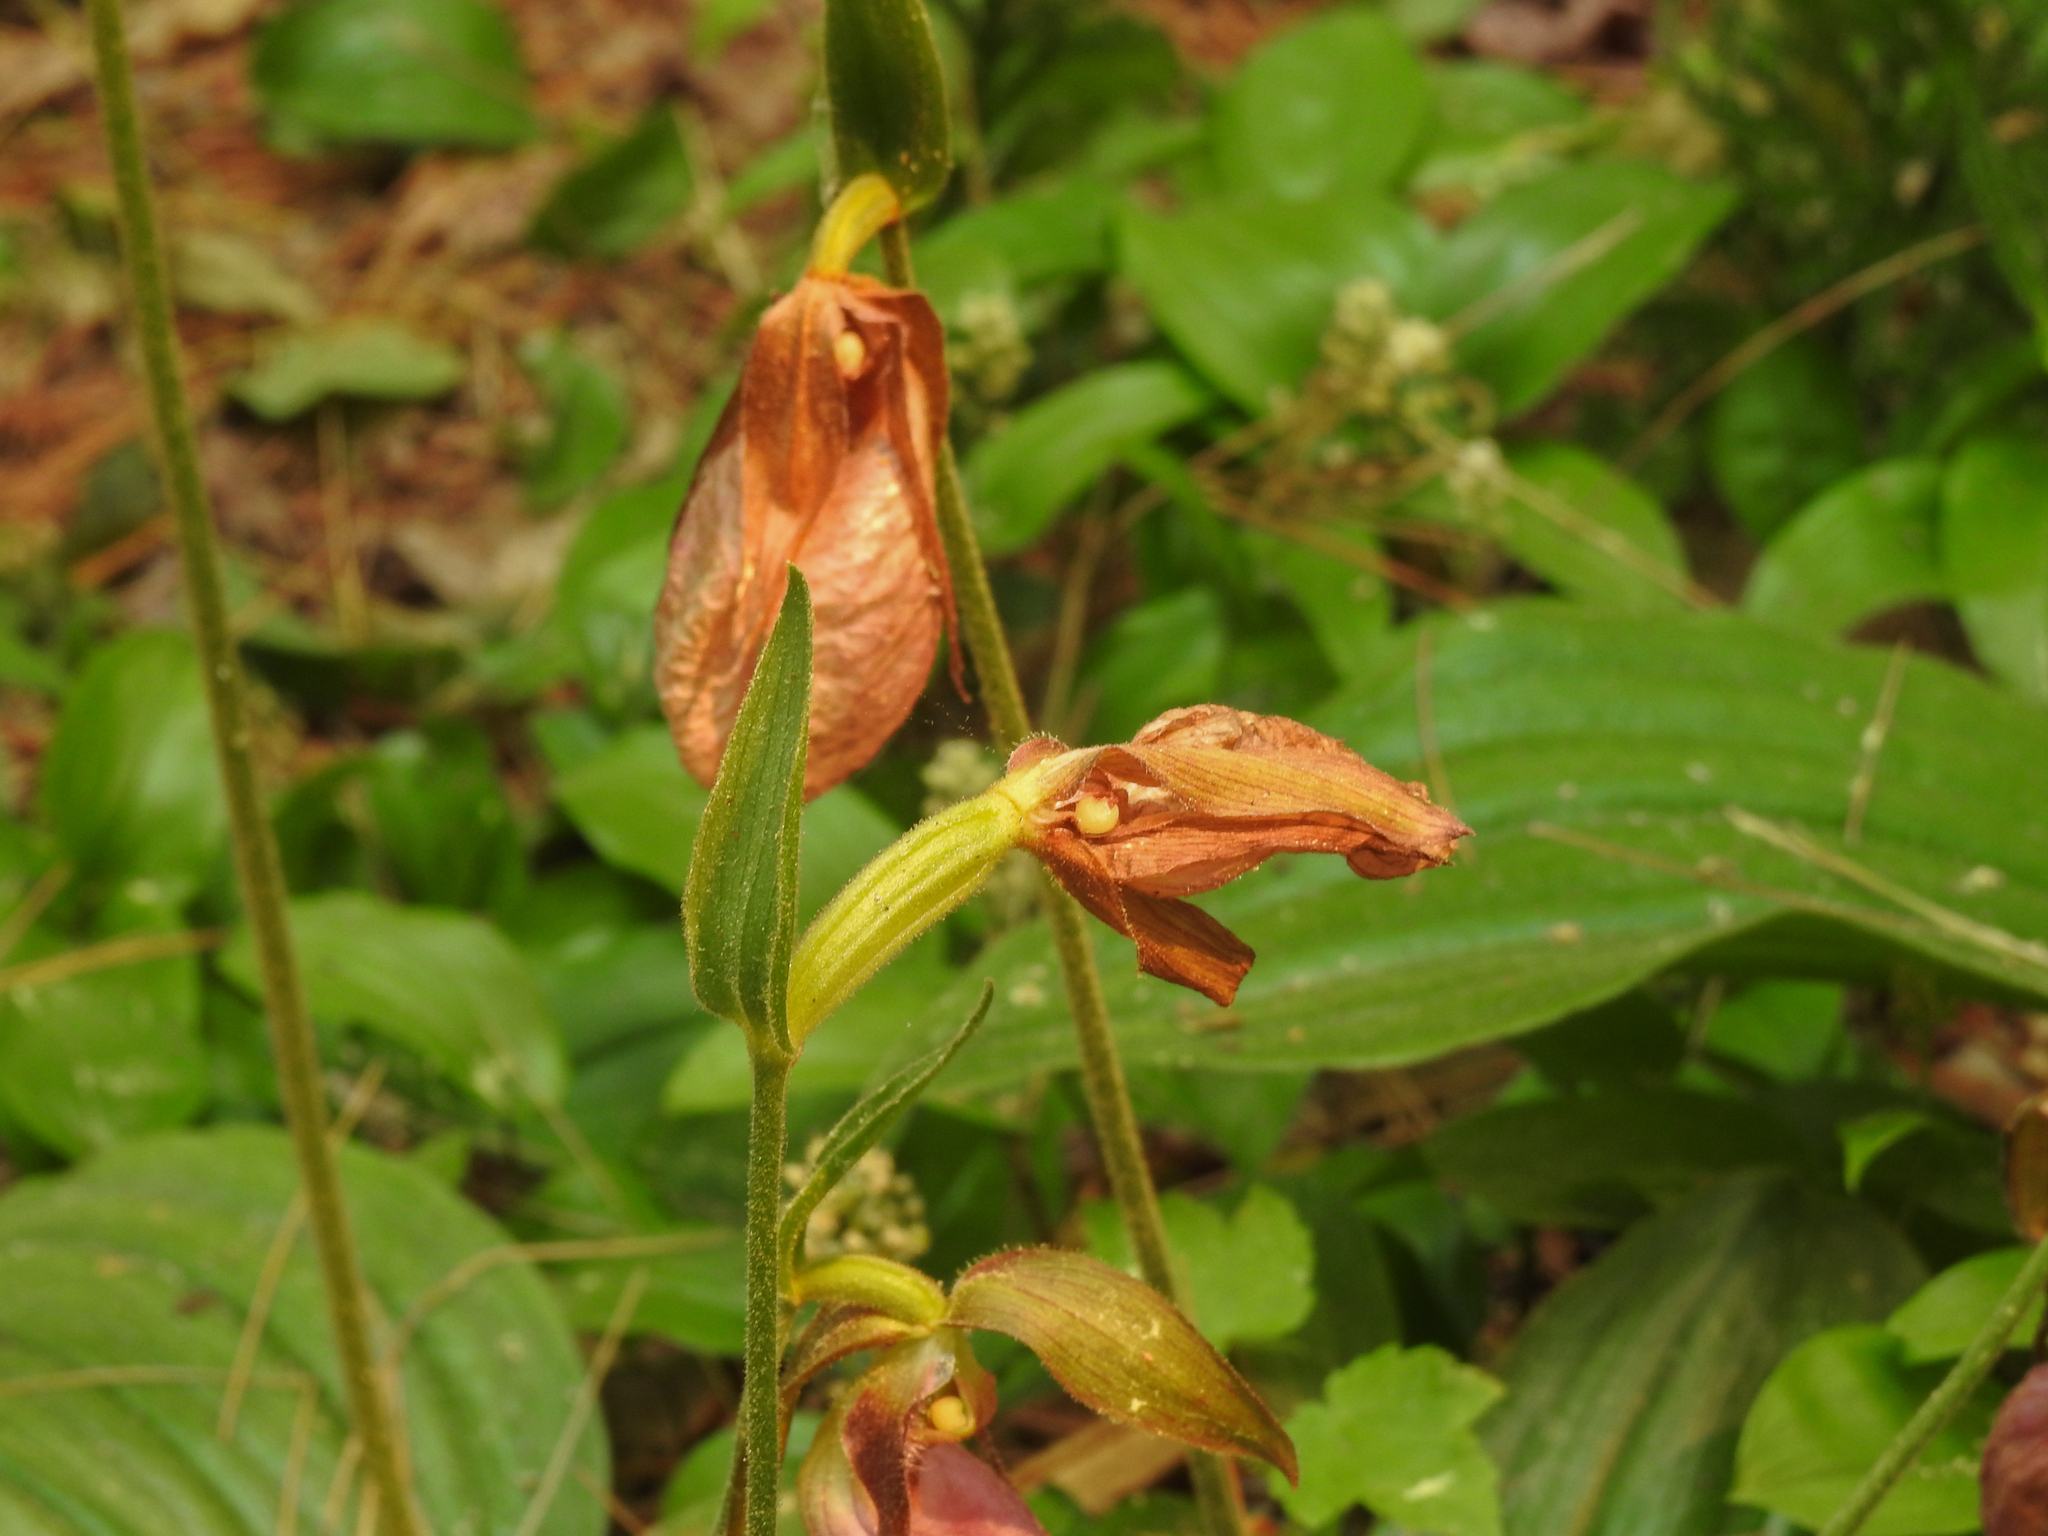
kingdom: Plantae
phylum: Tracheophyta
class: Liliopsida
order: Asparagales
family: Orchidaceae
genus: Cypripedium
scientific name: Cypripedium acaule
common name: Pink lady's-slipper
